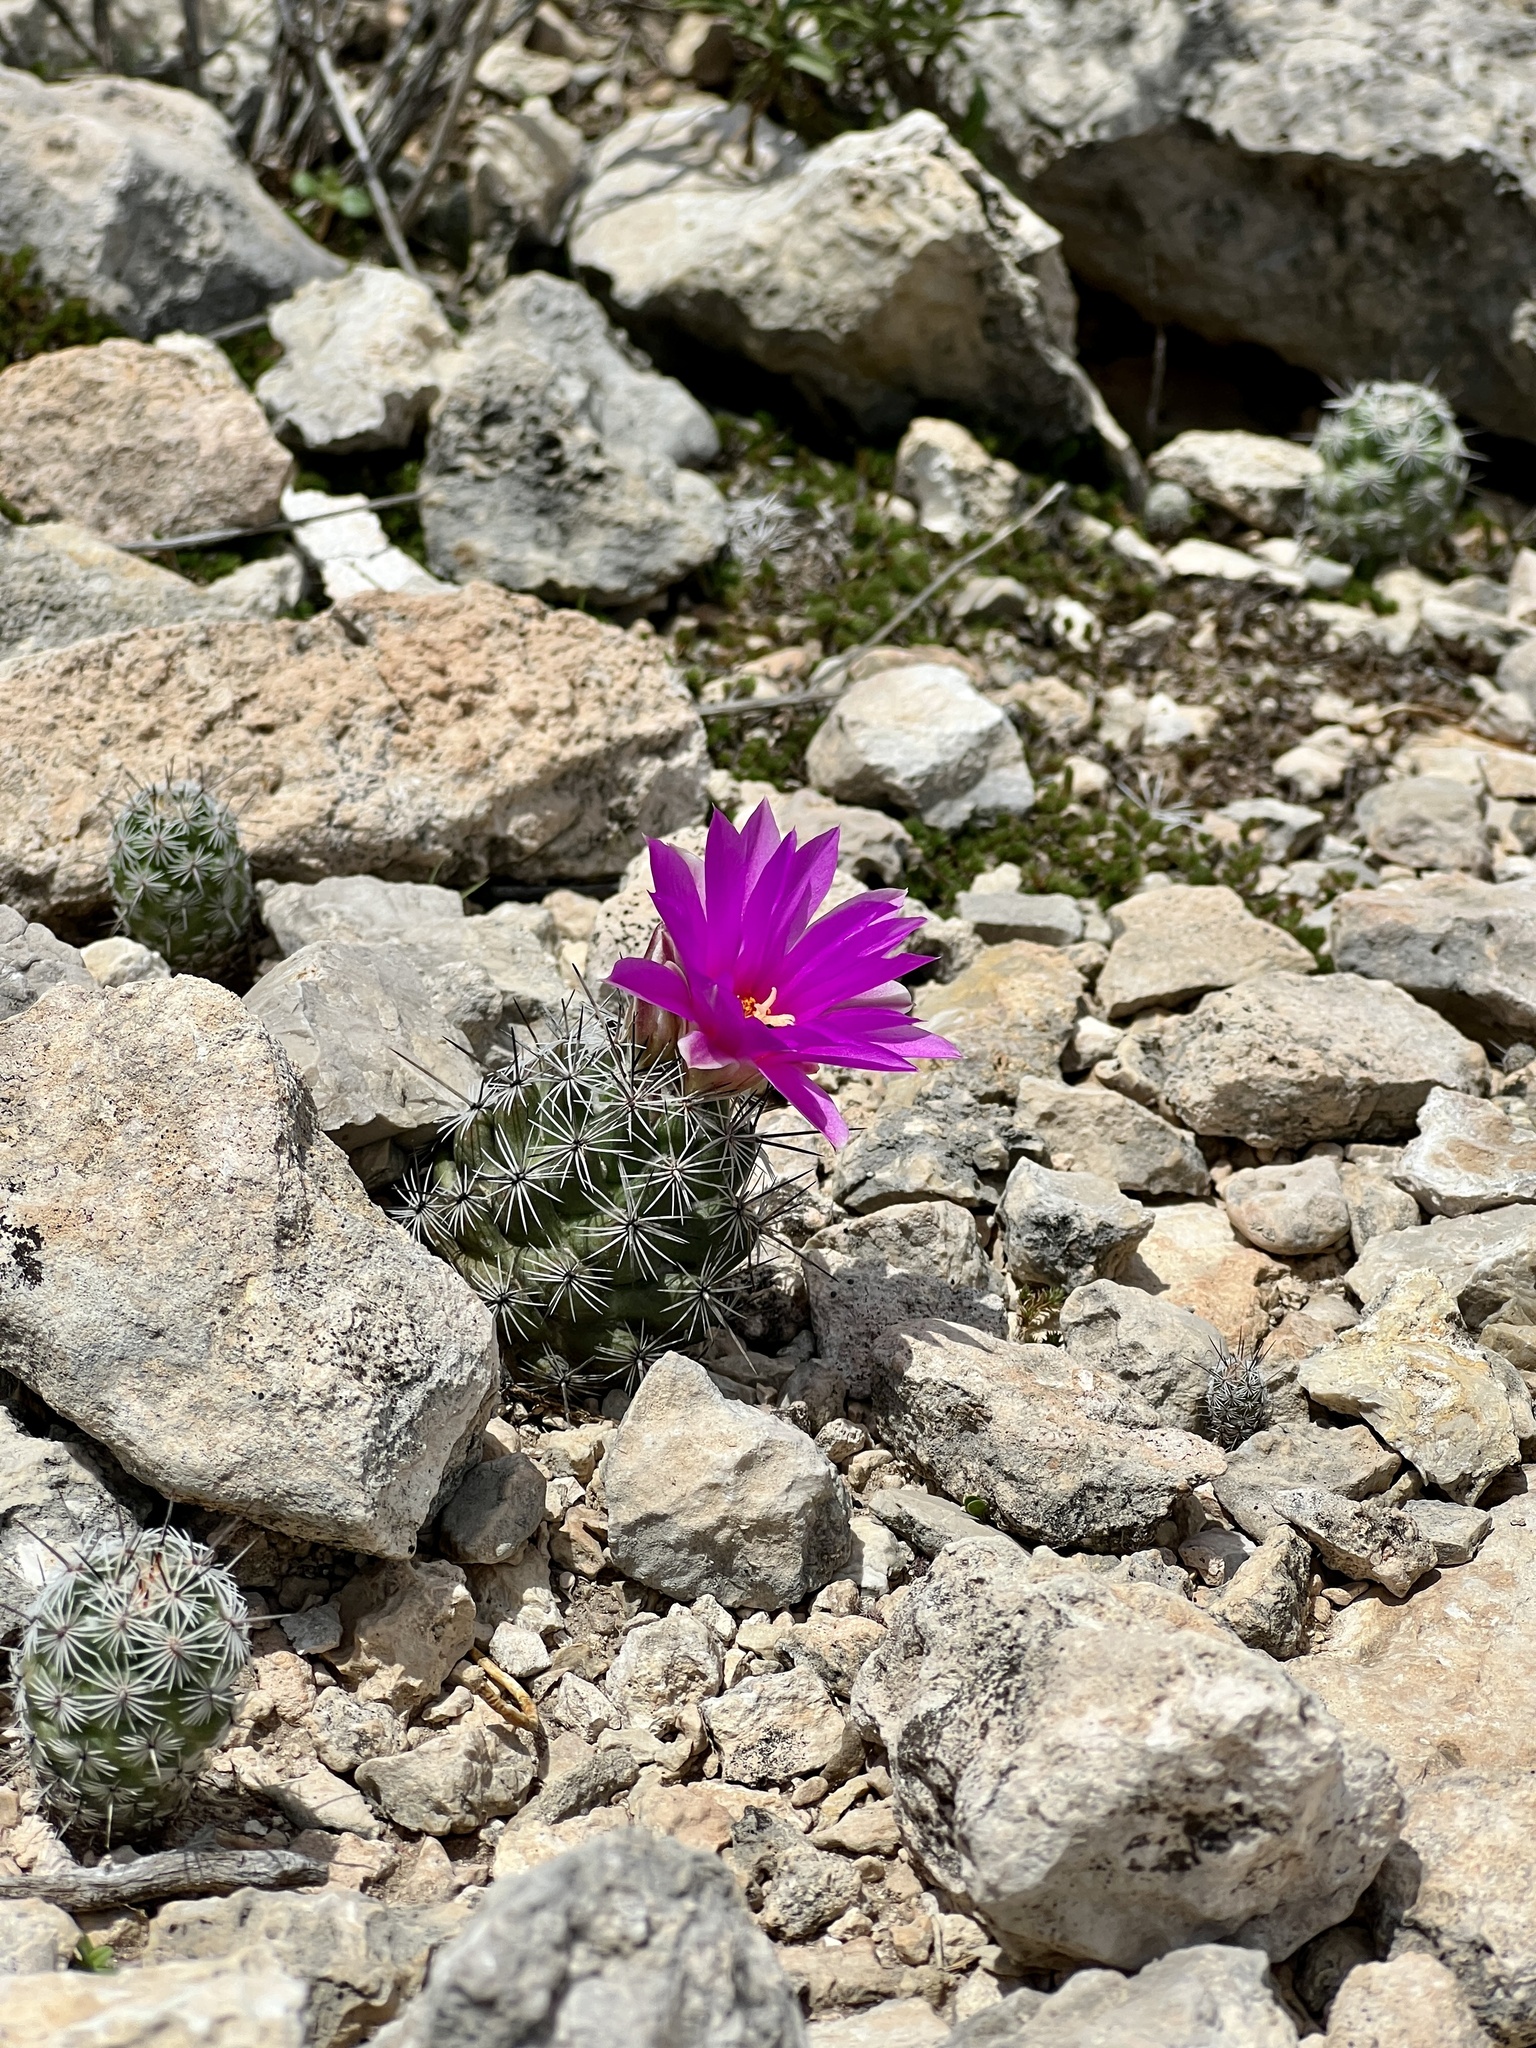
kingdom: Plantae
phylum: Tracheophyta
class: Magnoliopsida
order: Caryophyllales
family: Cactaceae
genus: Cochemiea
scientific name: Cochemiea conoidea
